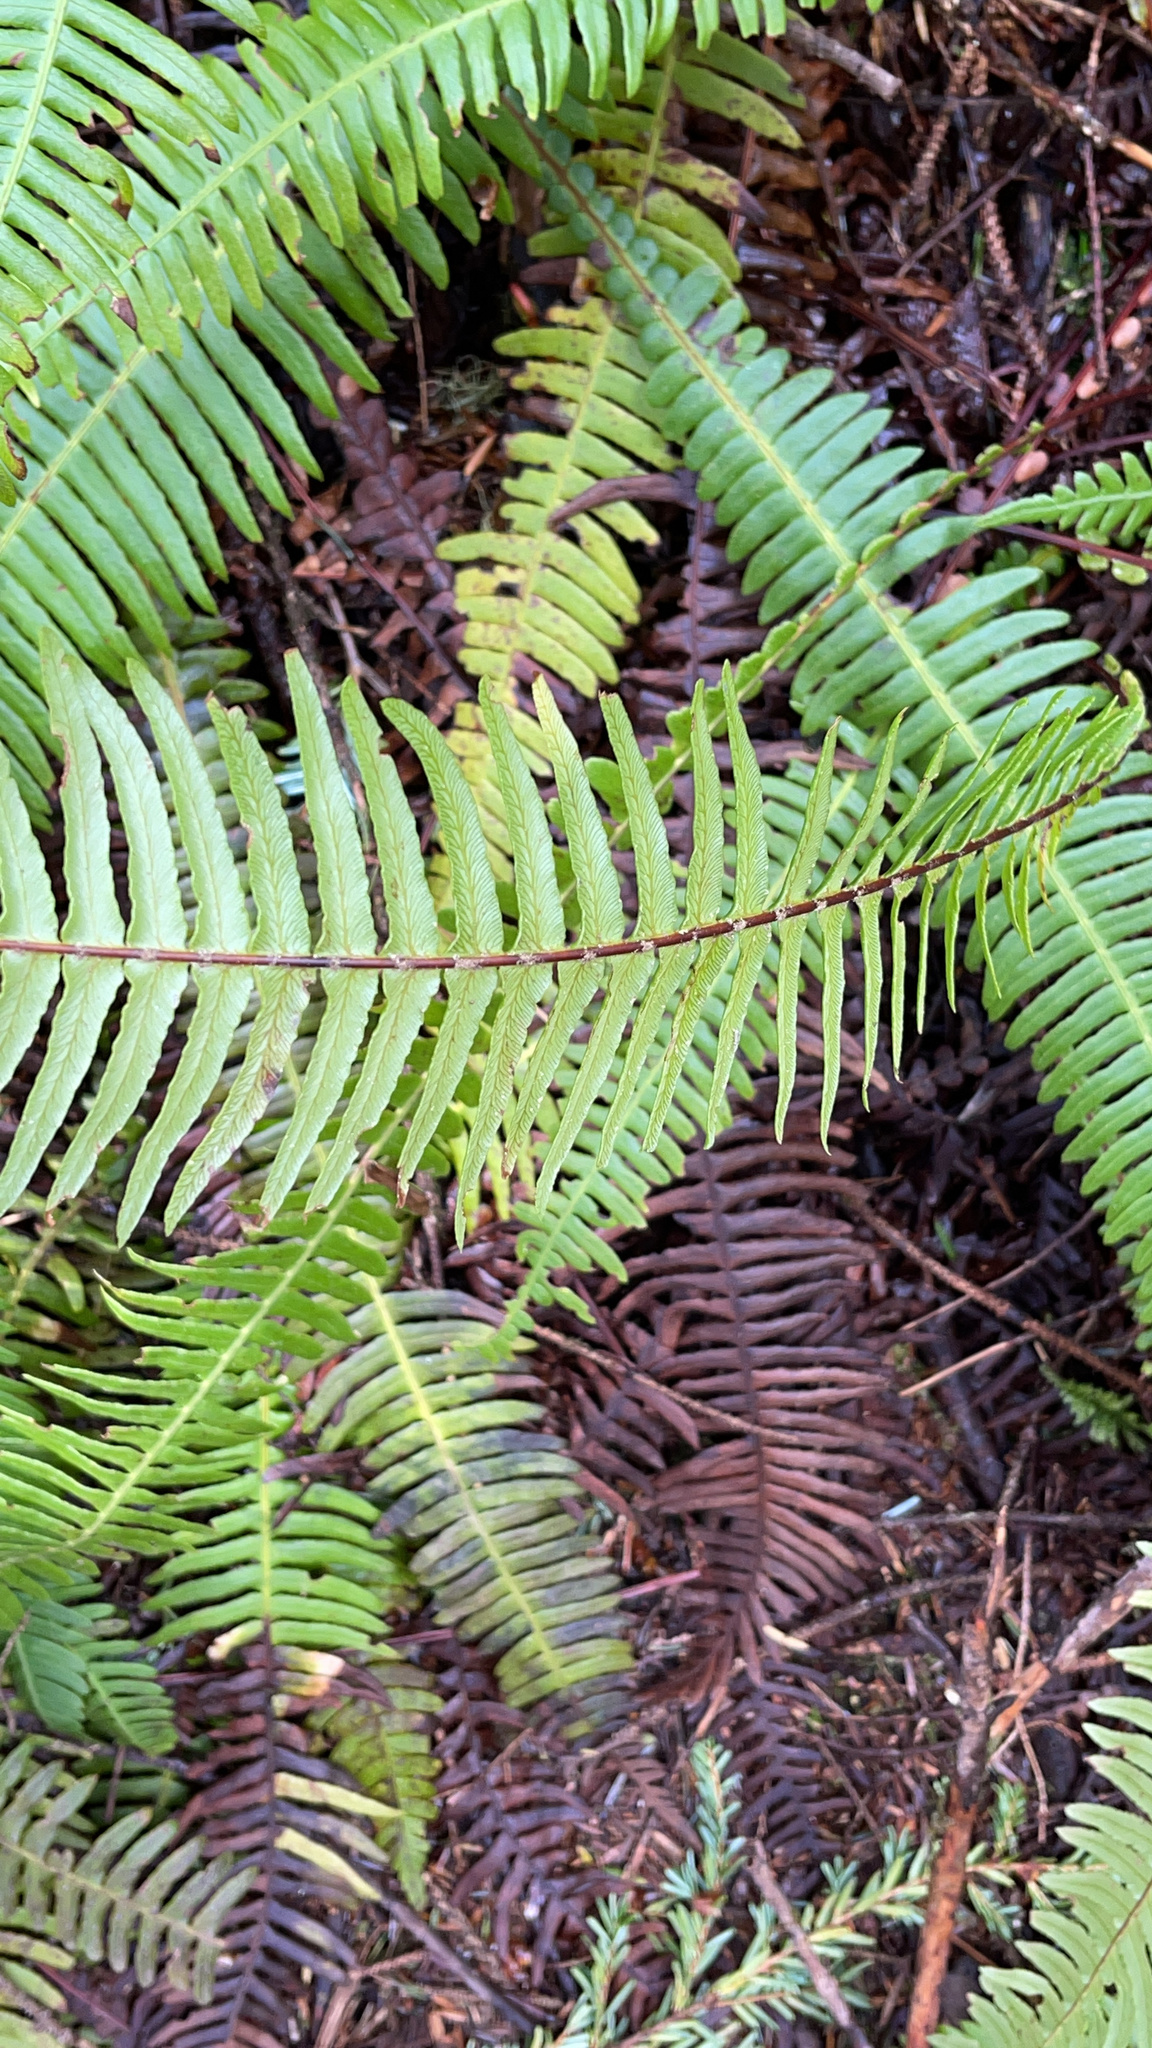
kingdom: Plantae
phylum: Tracheophyta
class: Polypodiopsida
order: Polypodiales
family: Blechnaceae
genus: Struthiopteris
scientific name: Struthiopteris spicant
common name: Deer fern
